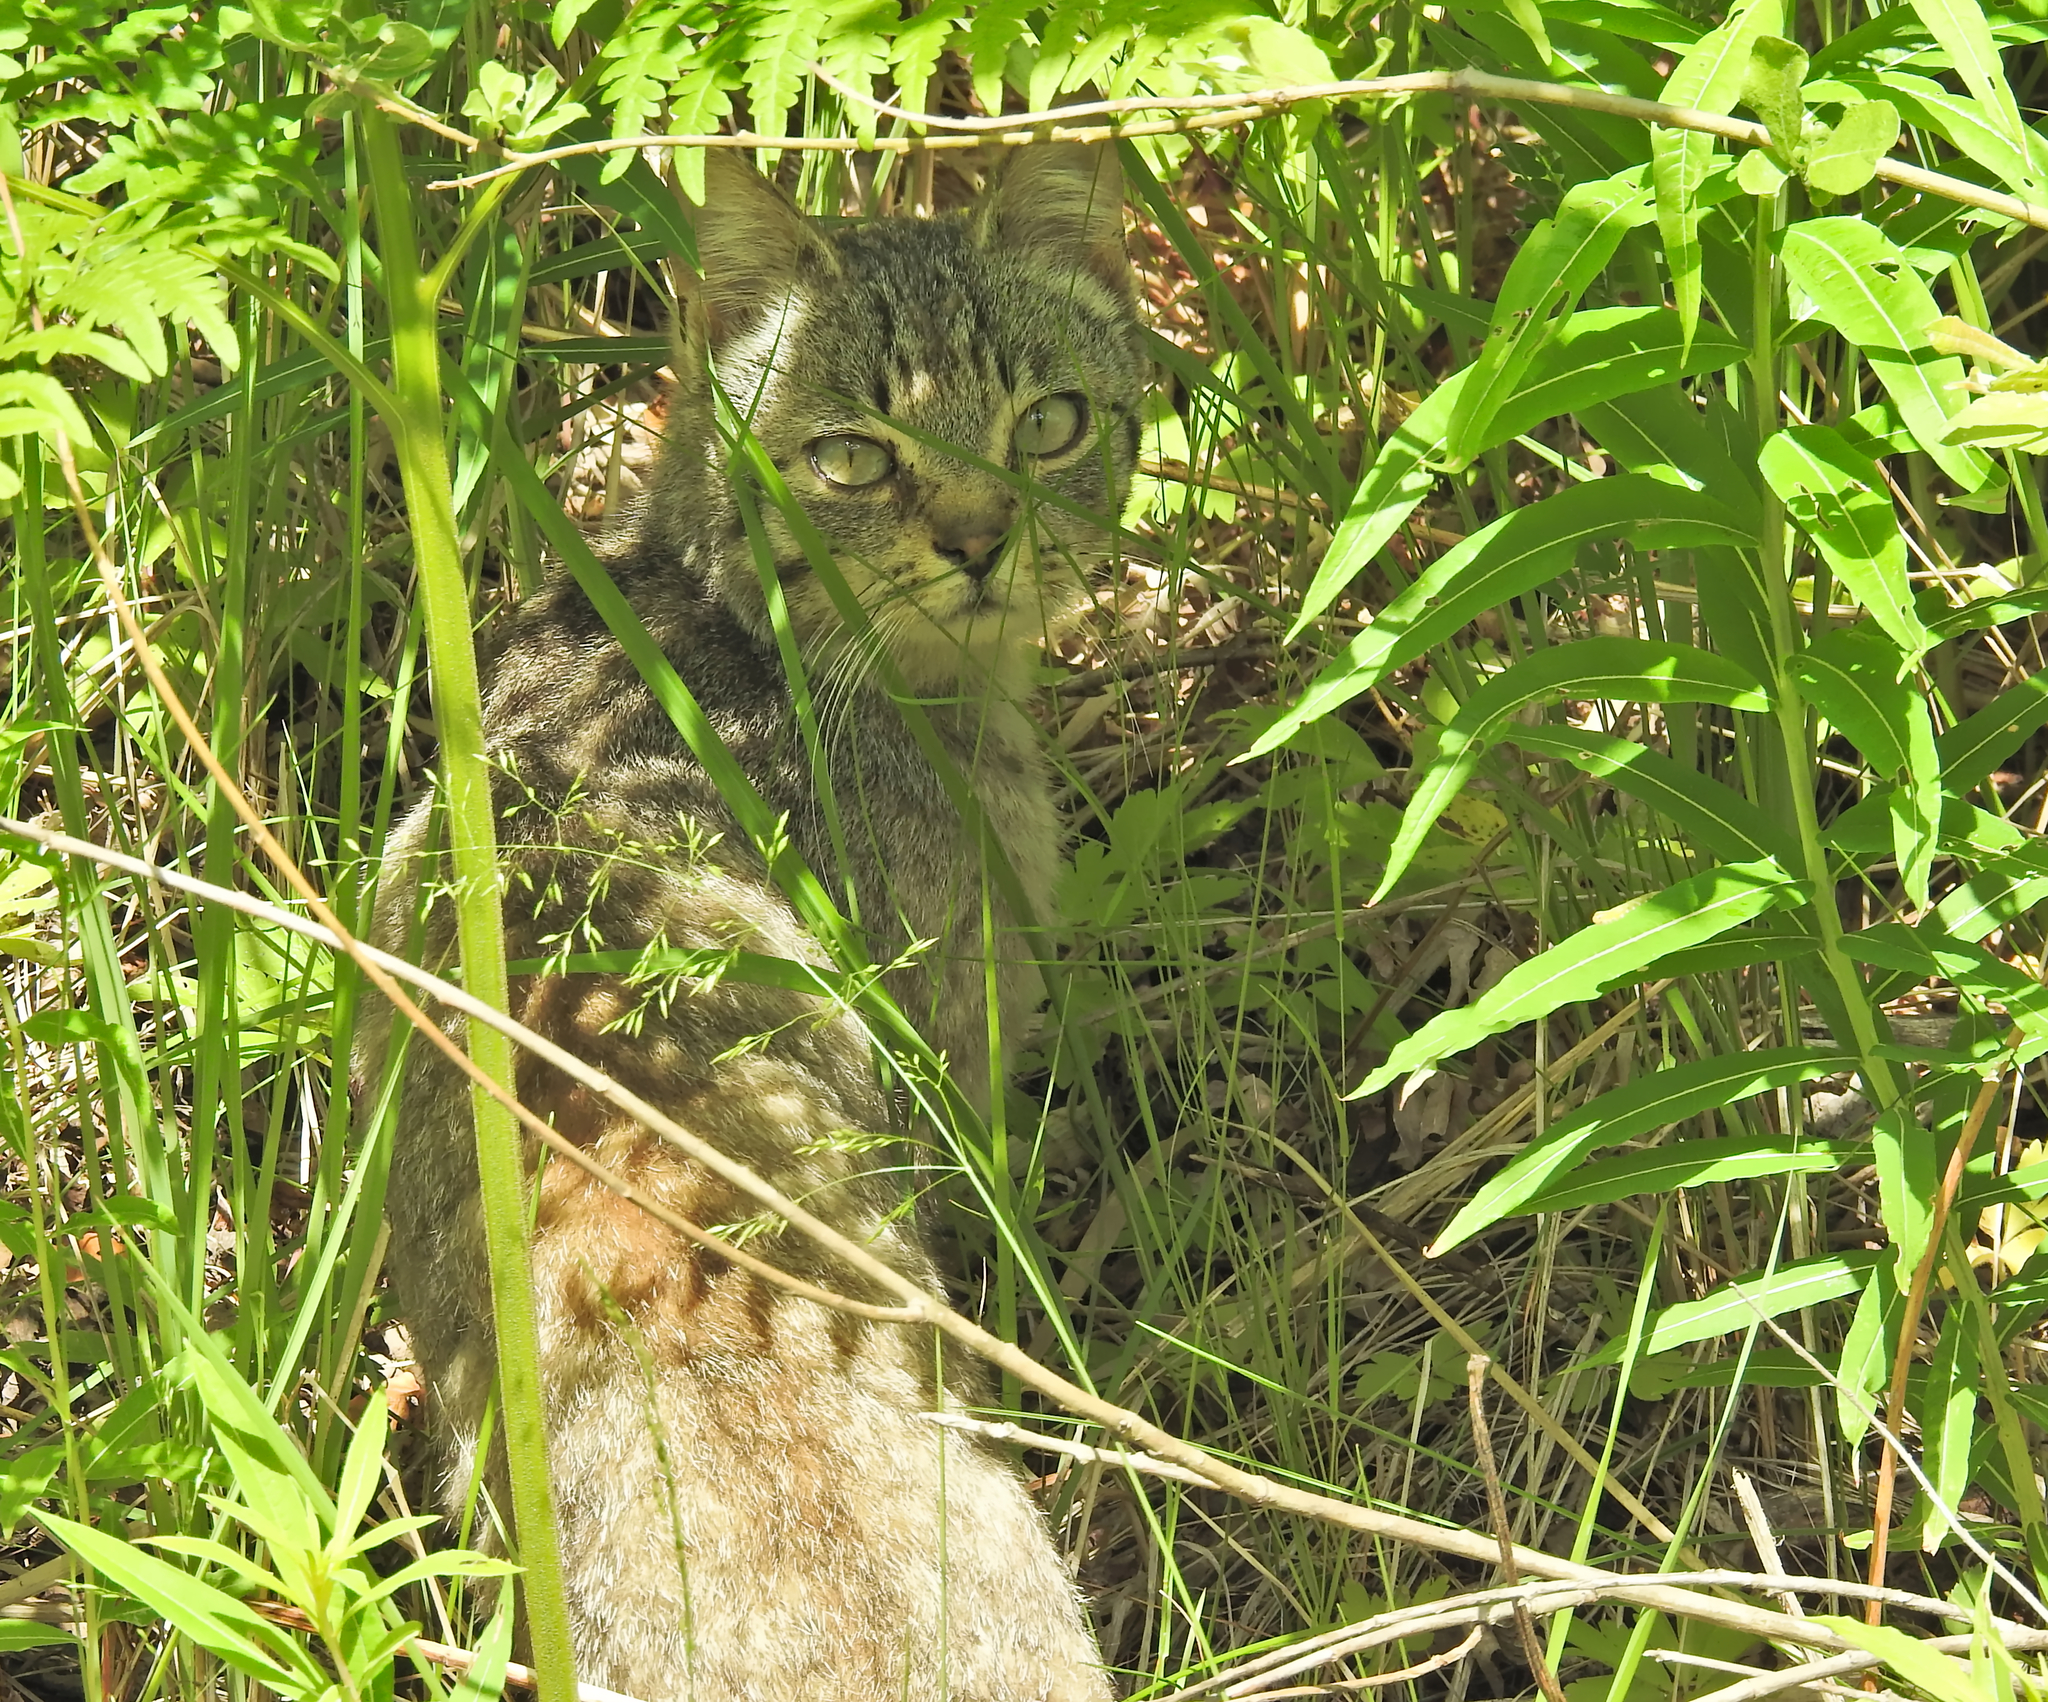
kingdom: Animalia
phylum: Chordata
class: Mammalia
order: Carnivora
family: Felidae
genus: Felis
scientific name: Felis catus
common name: Domestic cat
